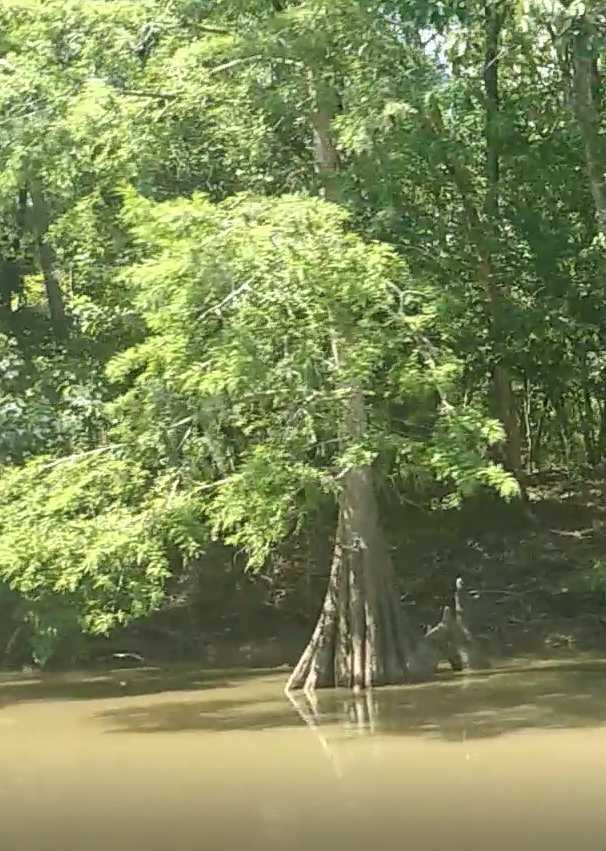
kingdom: Plantae
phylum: Tracheophyta
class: Pinopsida
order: Pinales
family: Cupressaceae
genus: Taxodium
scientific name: Taxodium distichum
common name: Bald cypress
